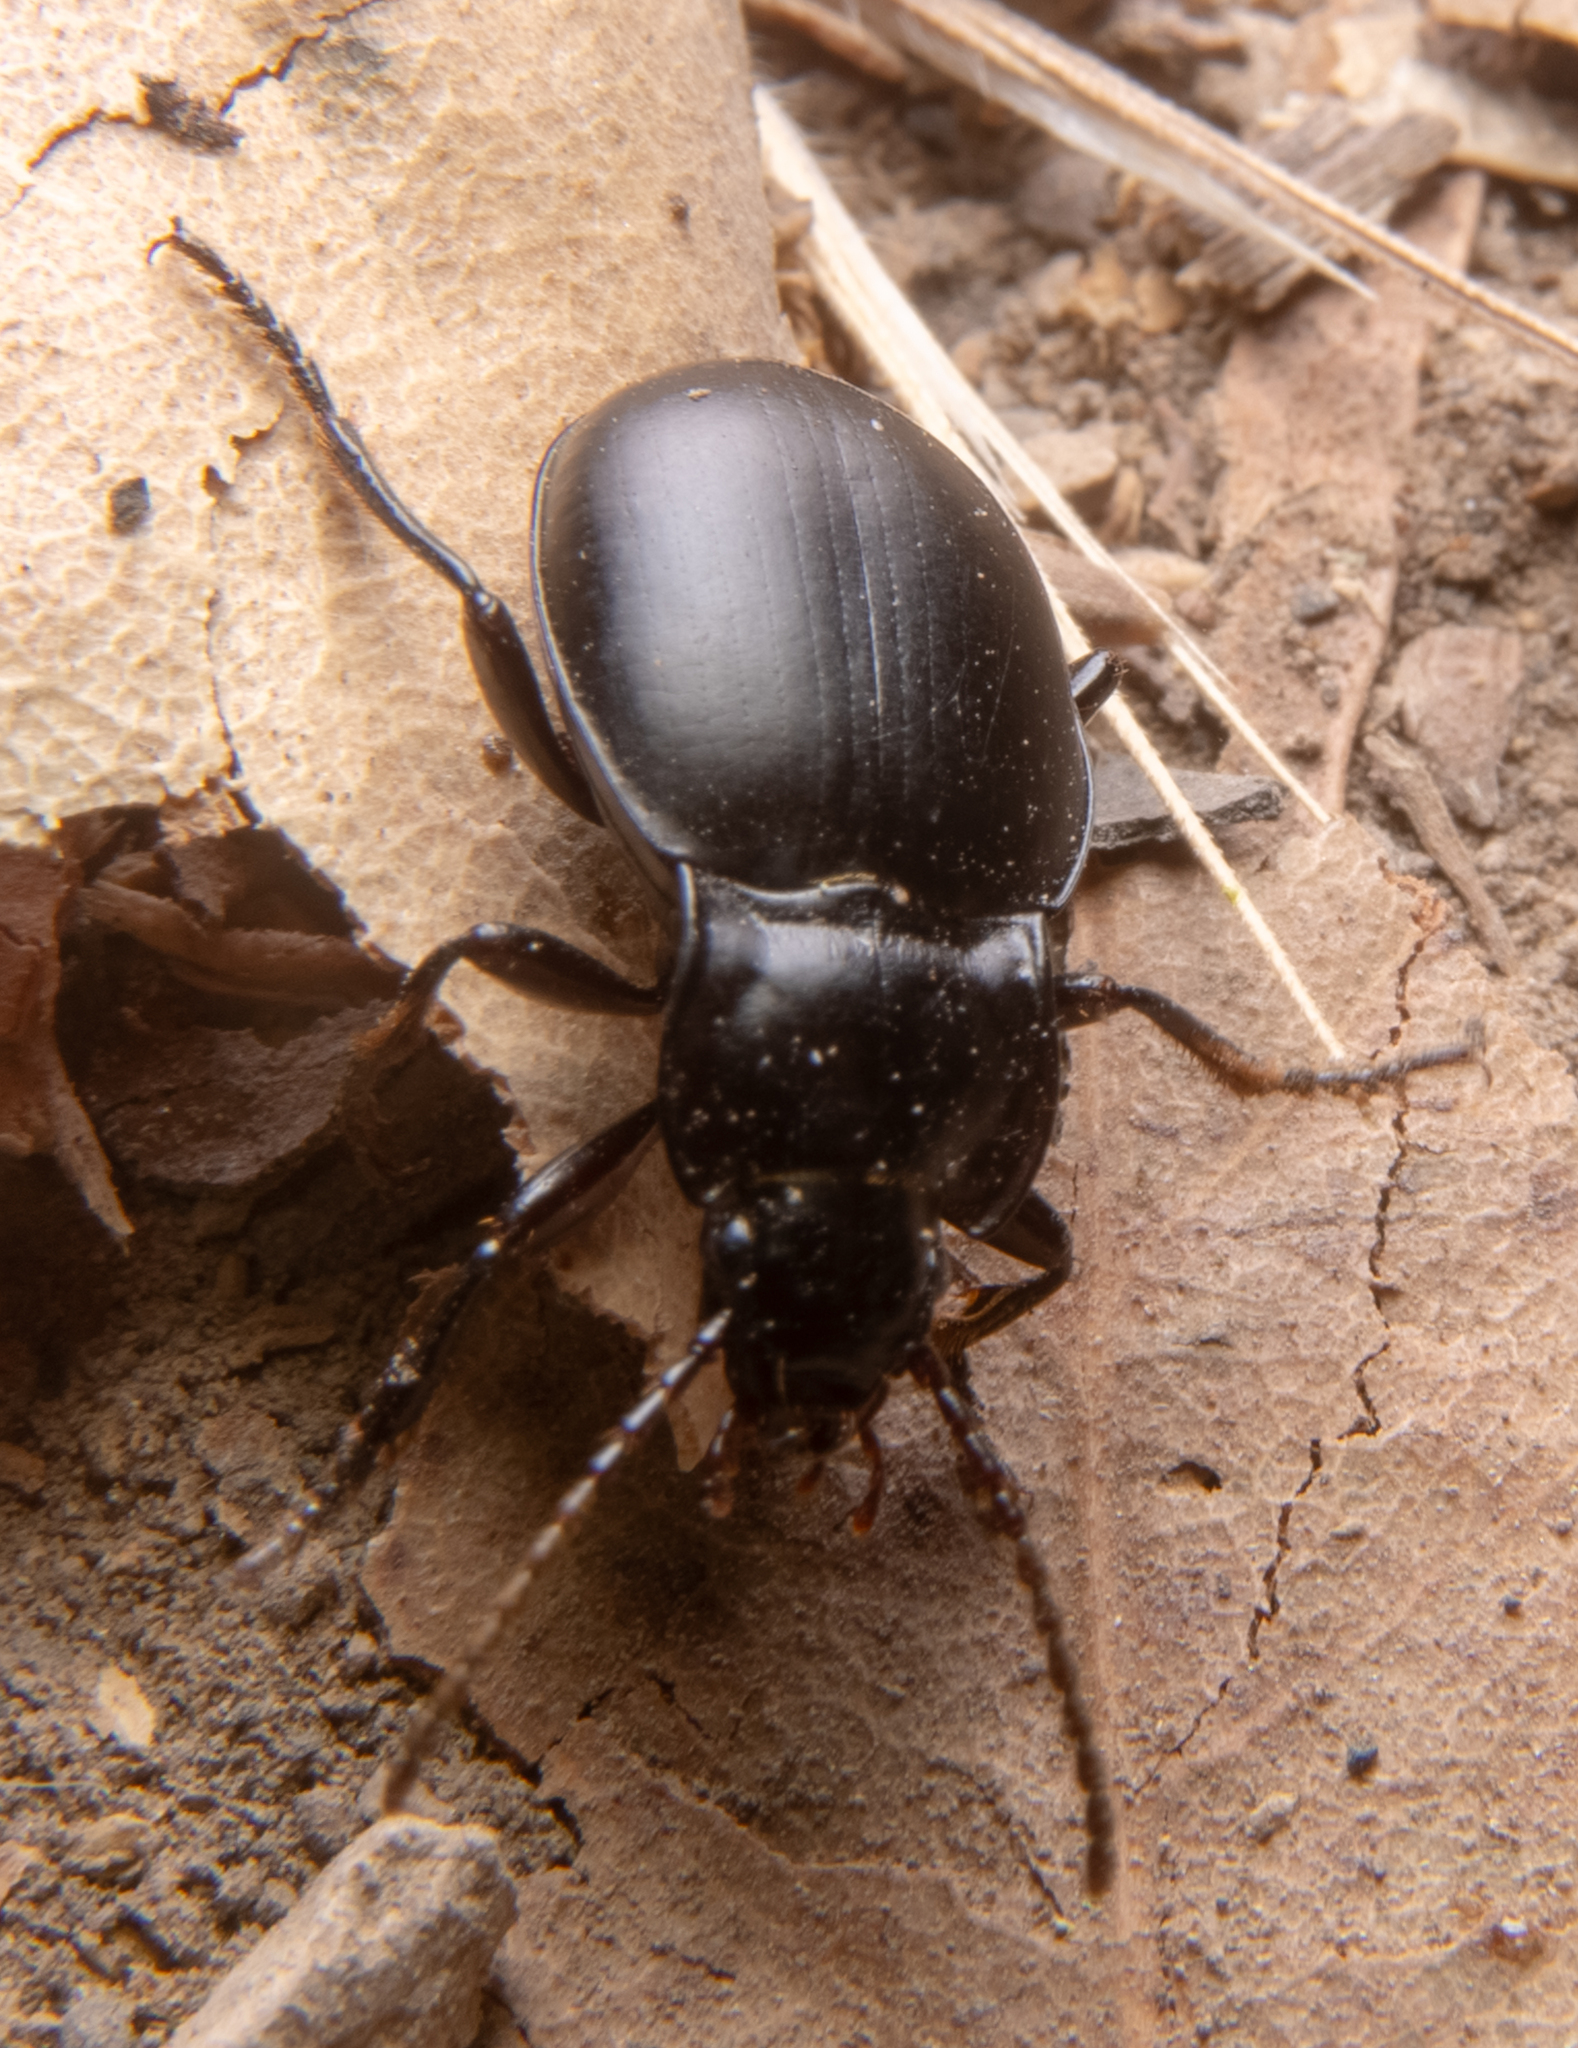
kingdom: Animalia
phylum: Arthropoda
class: Insecta
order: Coleoptera
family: Carabidae
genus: Metrius
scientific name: Metrius contractus
